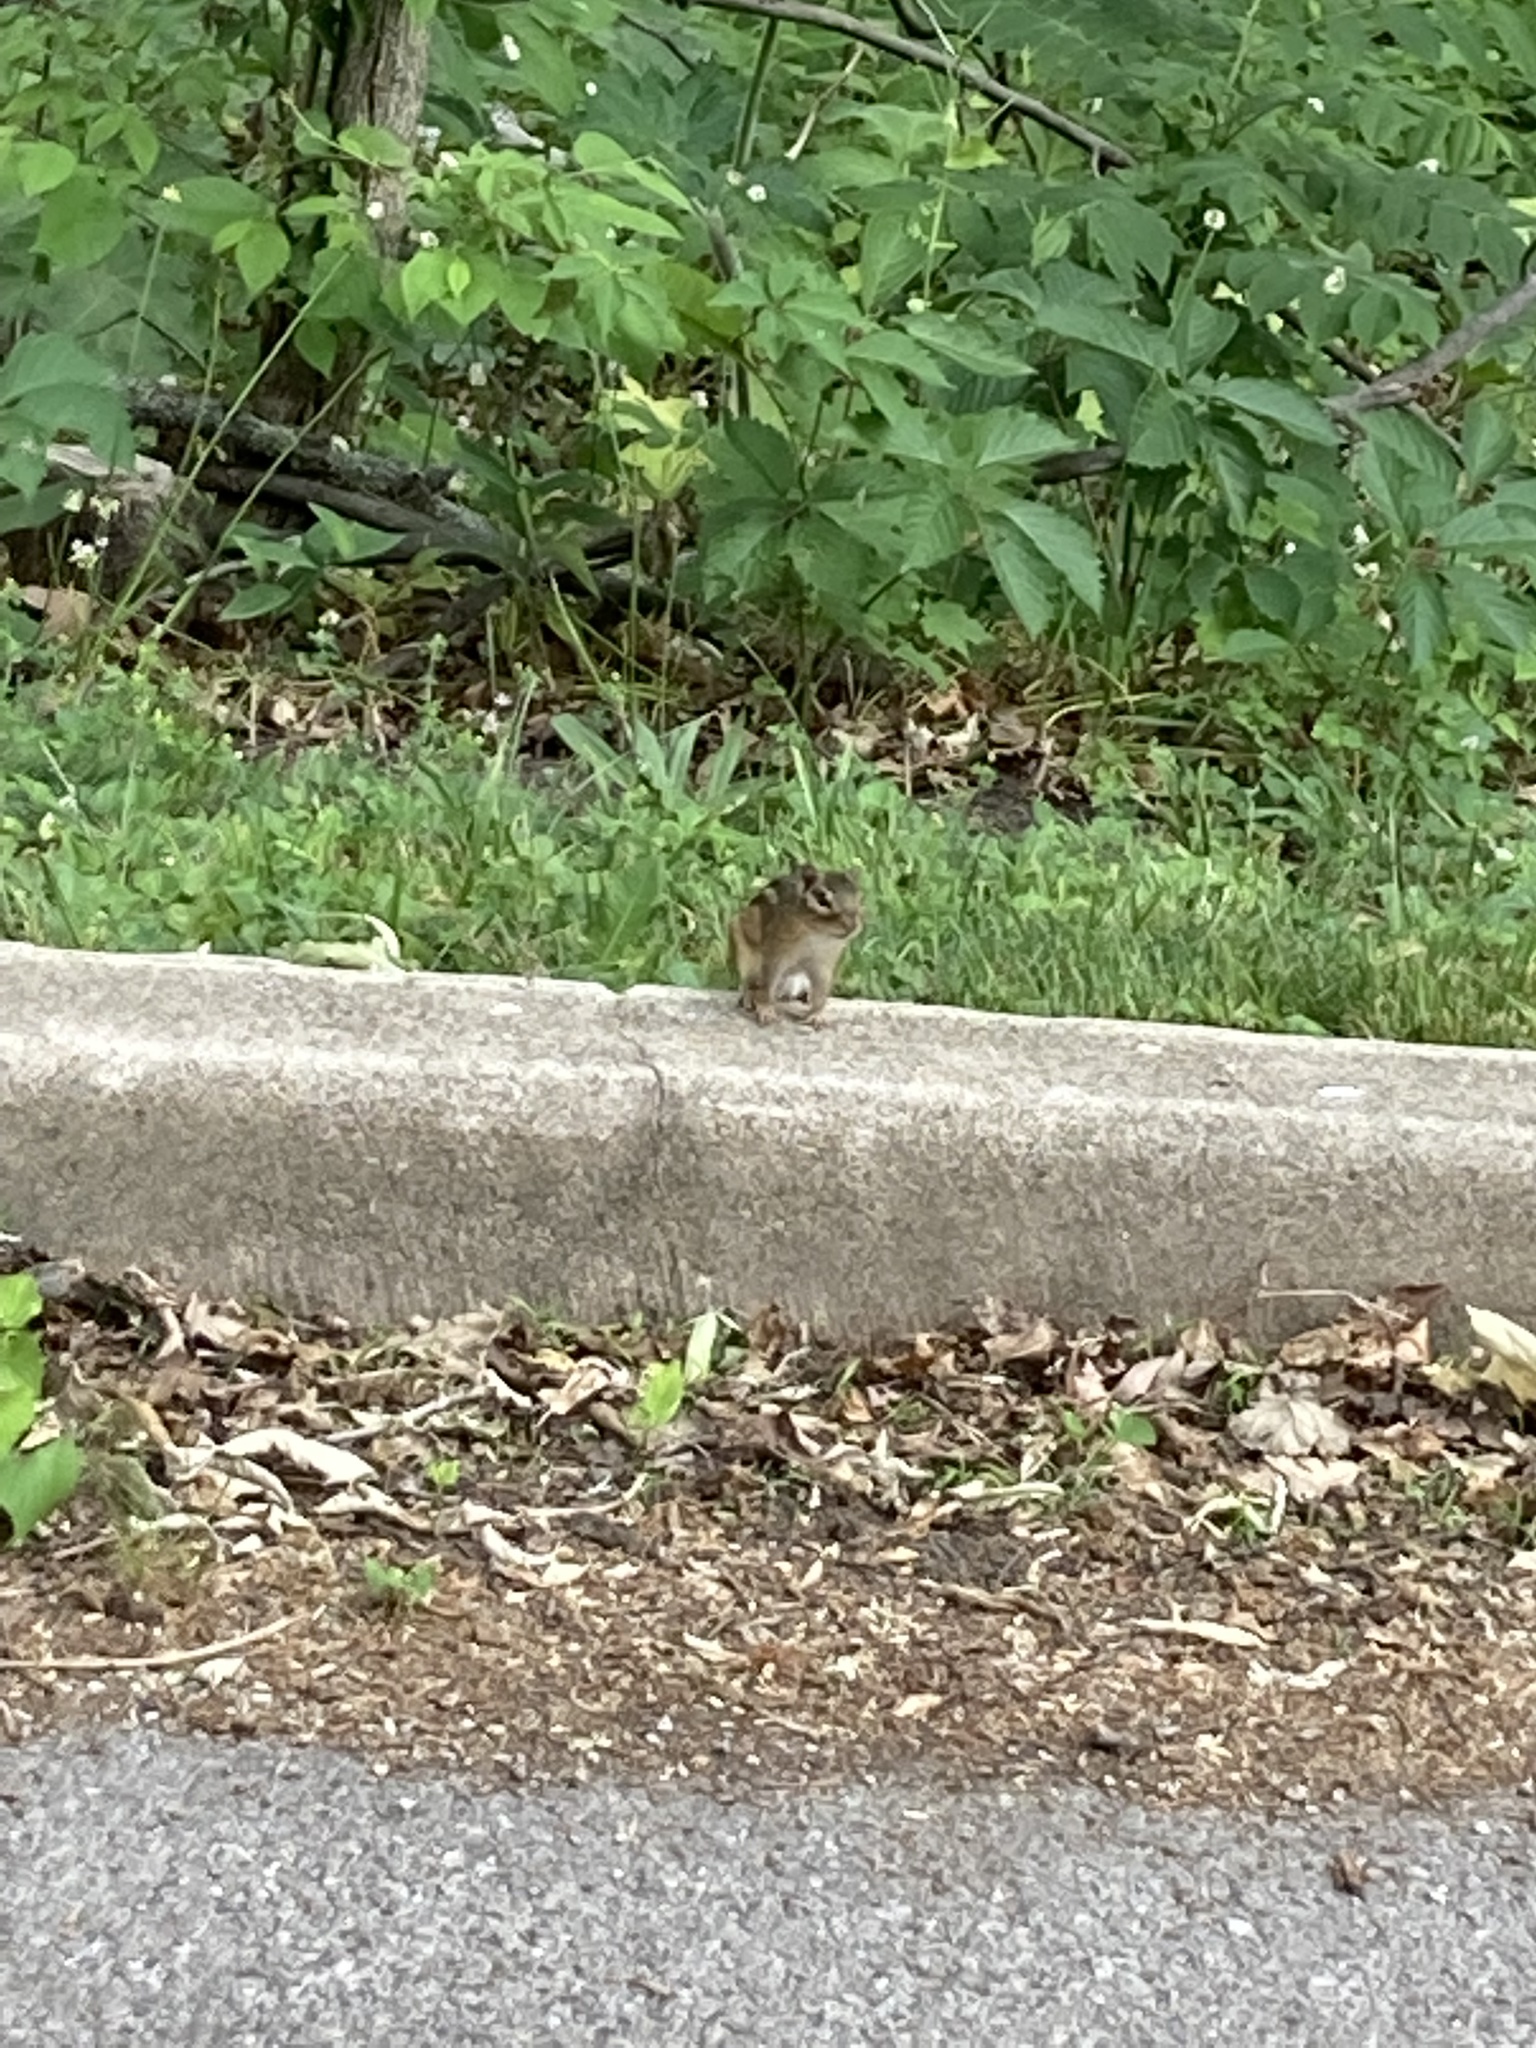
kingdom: Animalia
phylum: Chordata
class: Mammalia
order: Rodentia
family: Sciuridae
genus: Tamias
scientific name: Tamias striatus
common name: Eastern chipmunk
